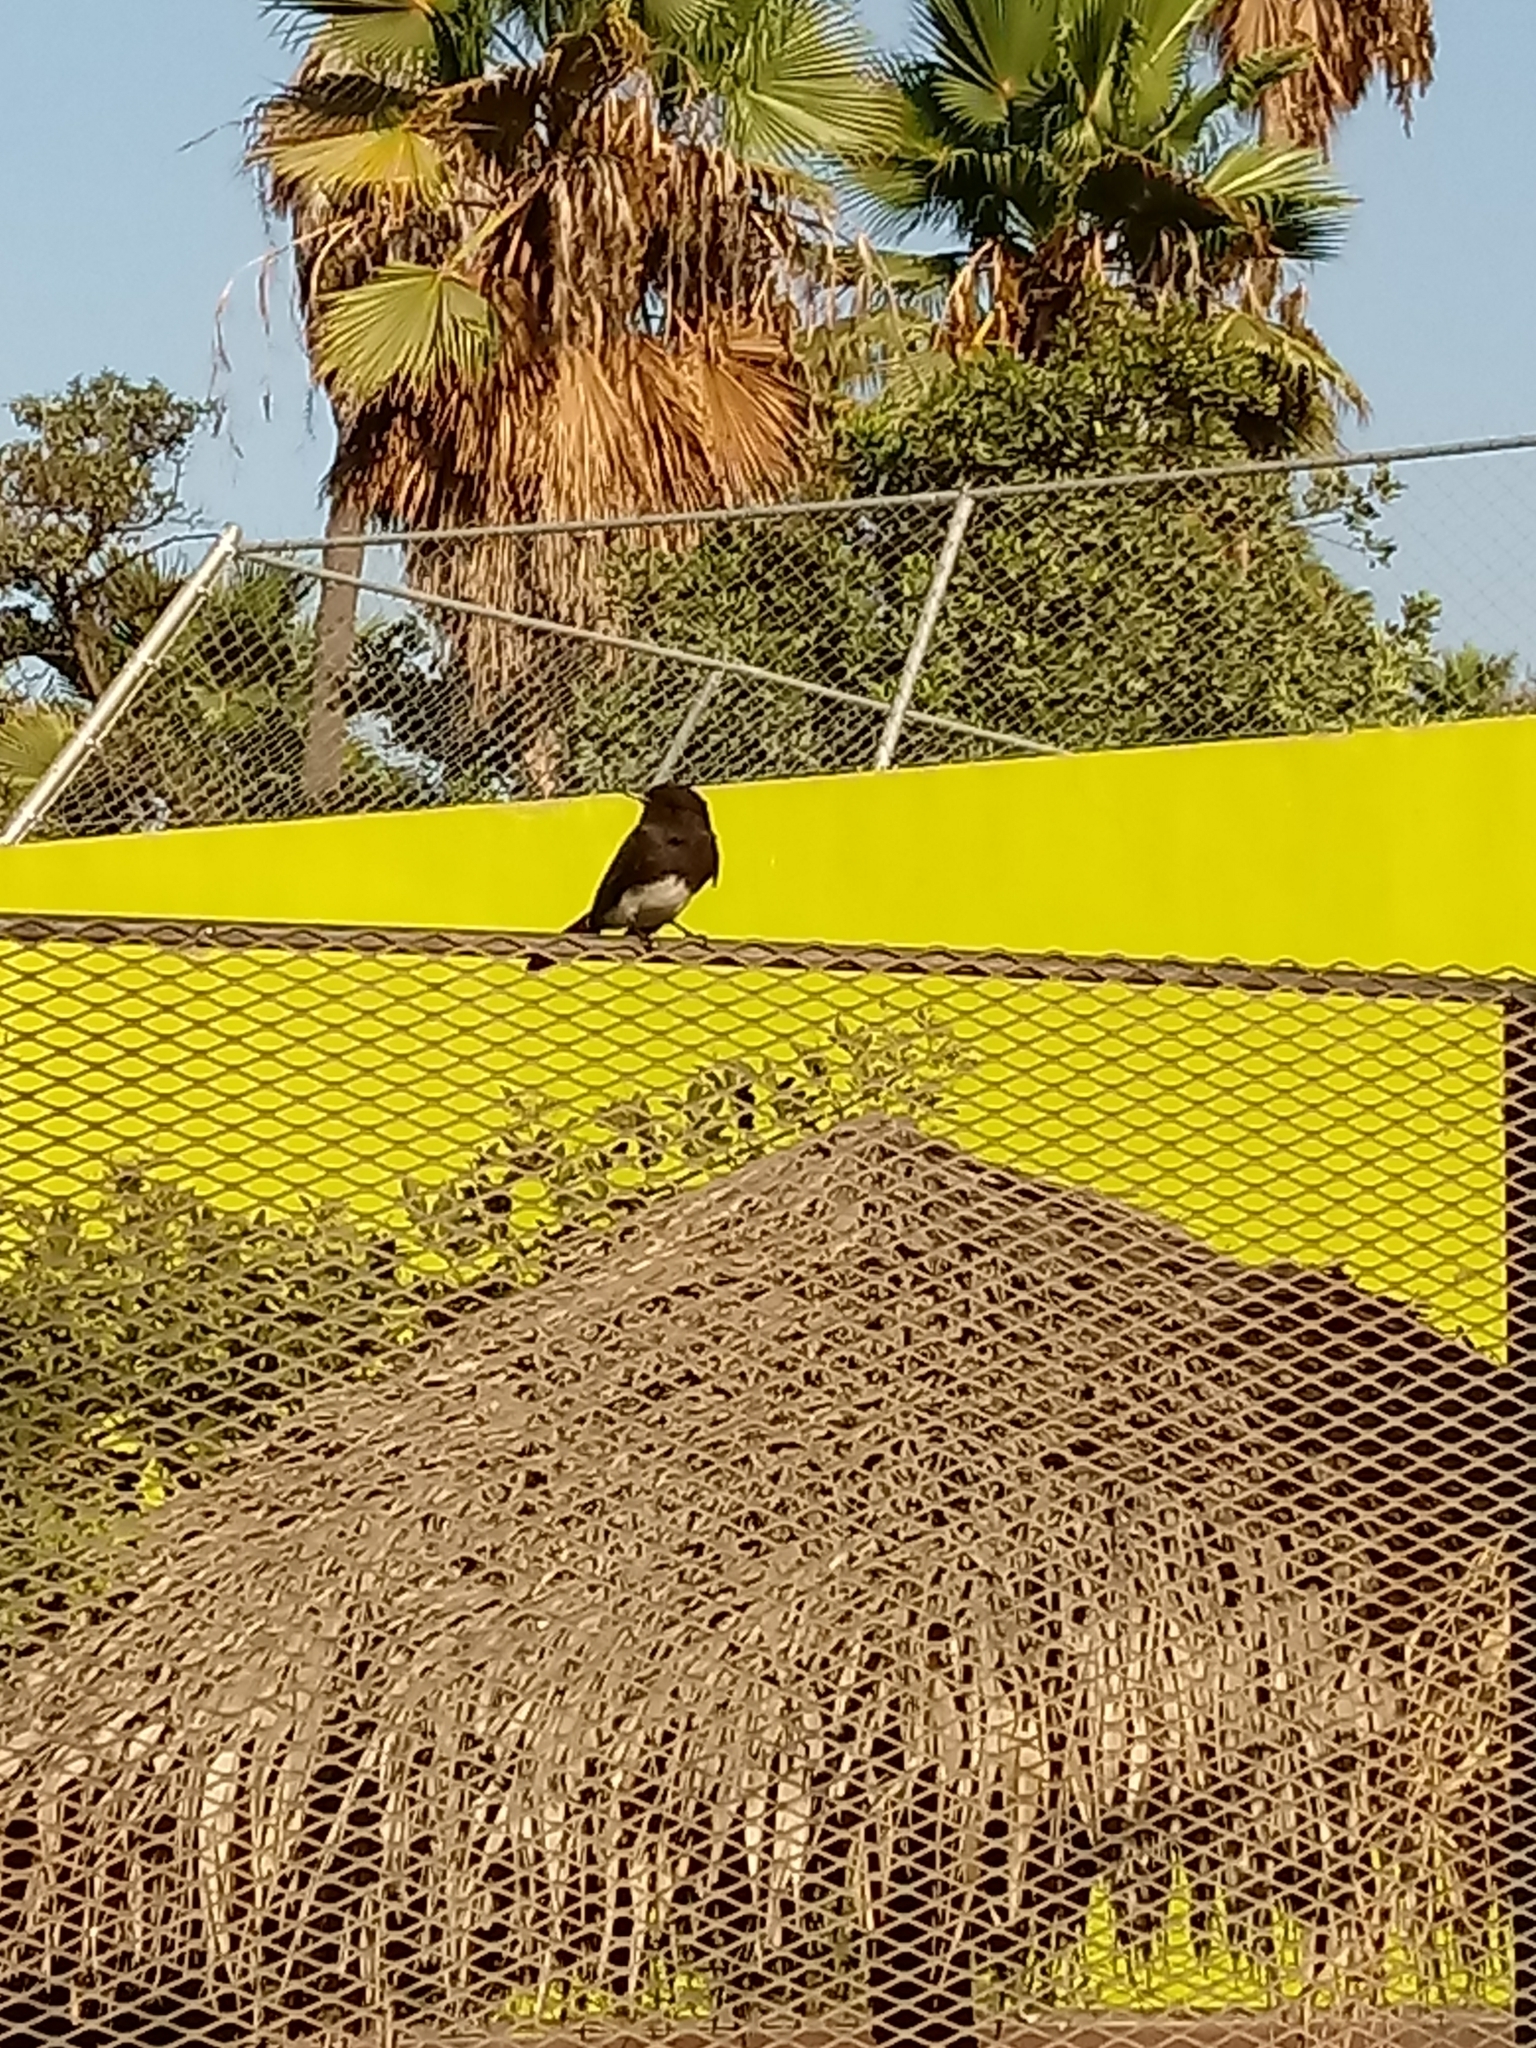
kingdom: Animalia
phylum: Chordata
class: Aves
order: Passeriformes
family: Tyrannidae
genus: Sayornis
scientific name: Sayornis nigricans
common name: Black phoebe
